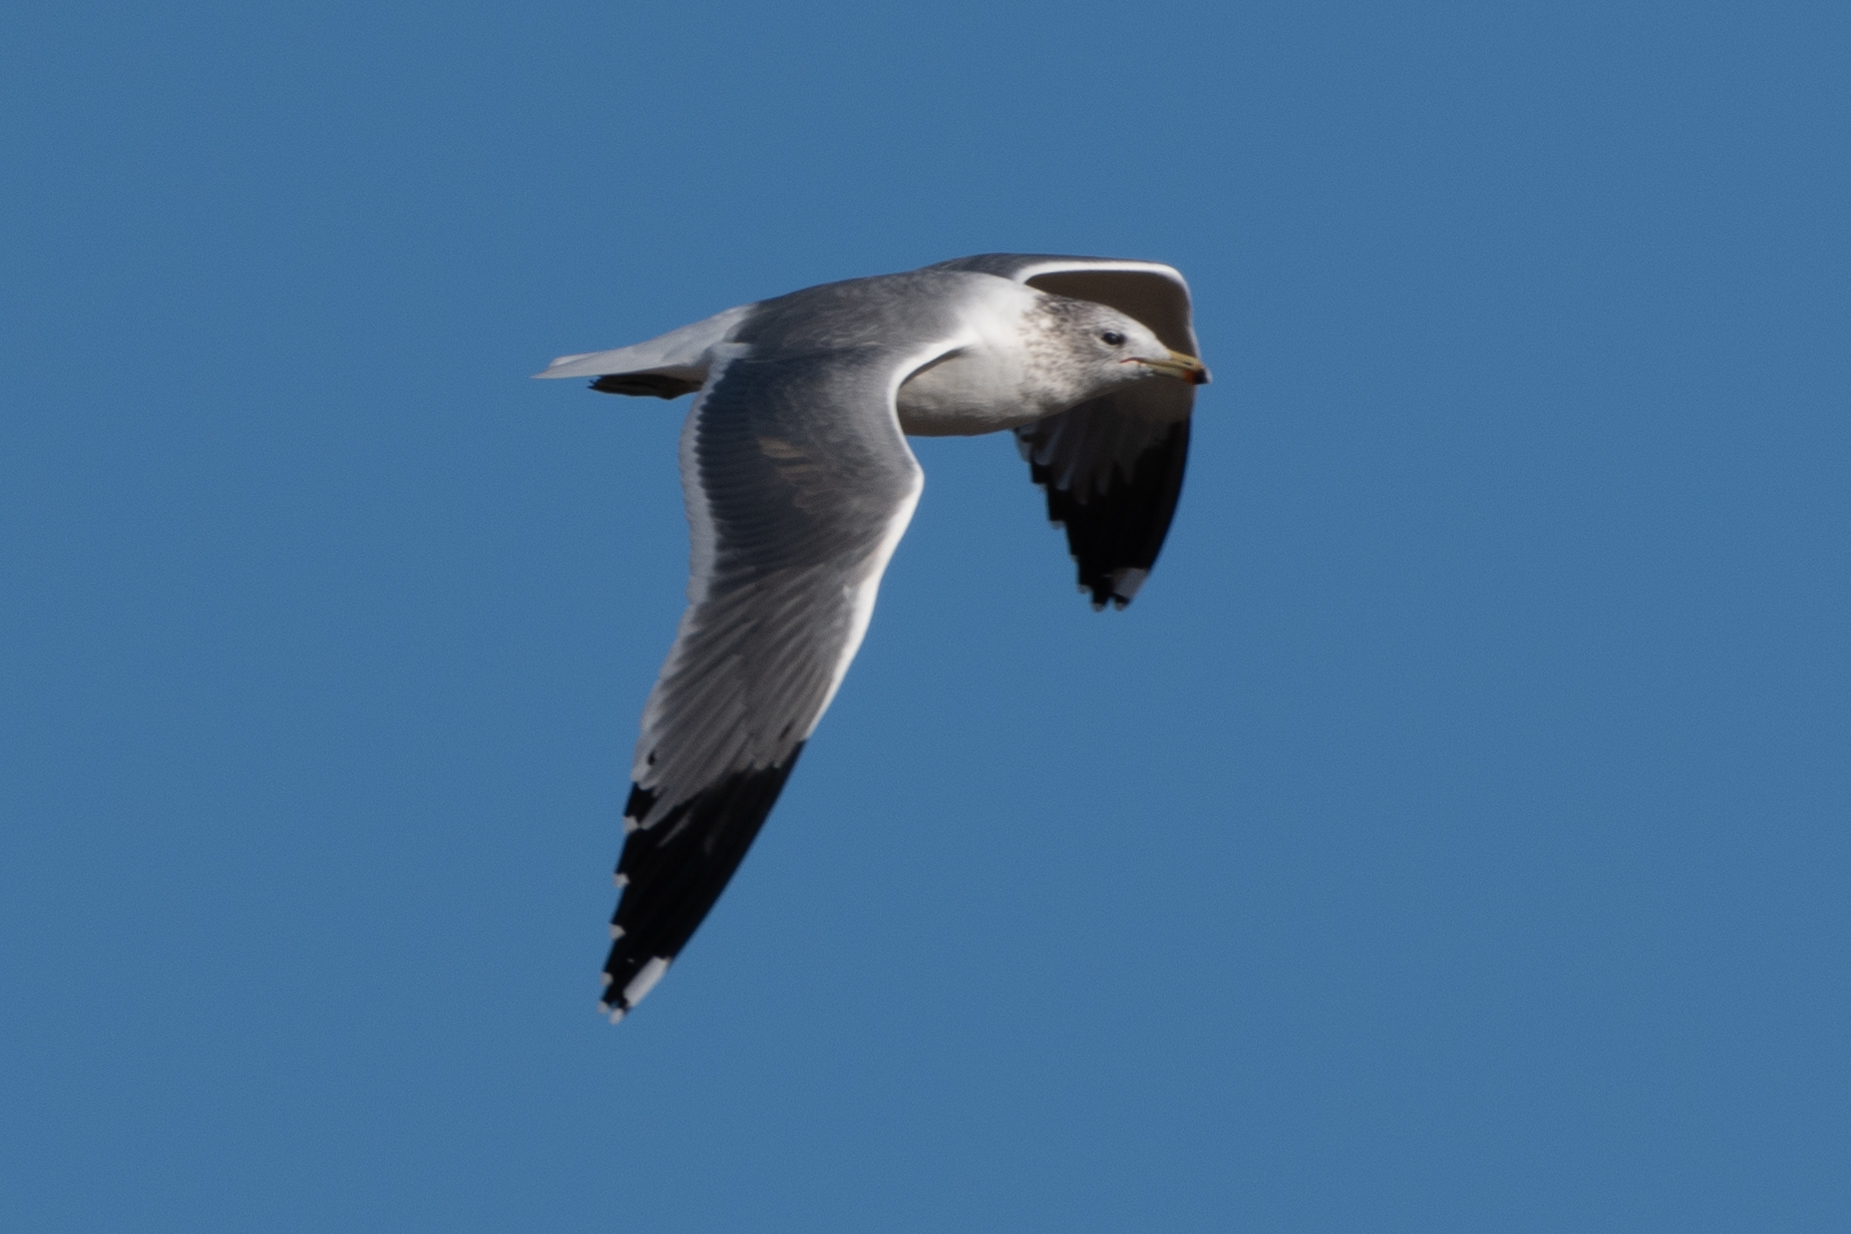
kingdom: Animalia
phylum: Chordata
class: Aves
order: Charadriiformes
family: Laridae
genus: Larus
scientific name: Larus californicus
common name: California gull
